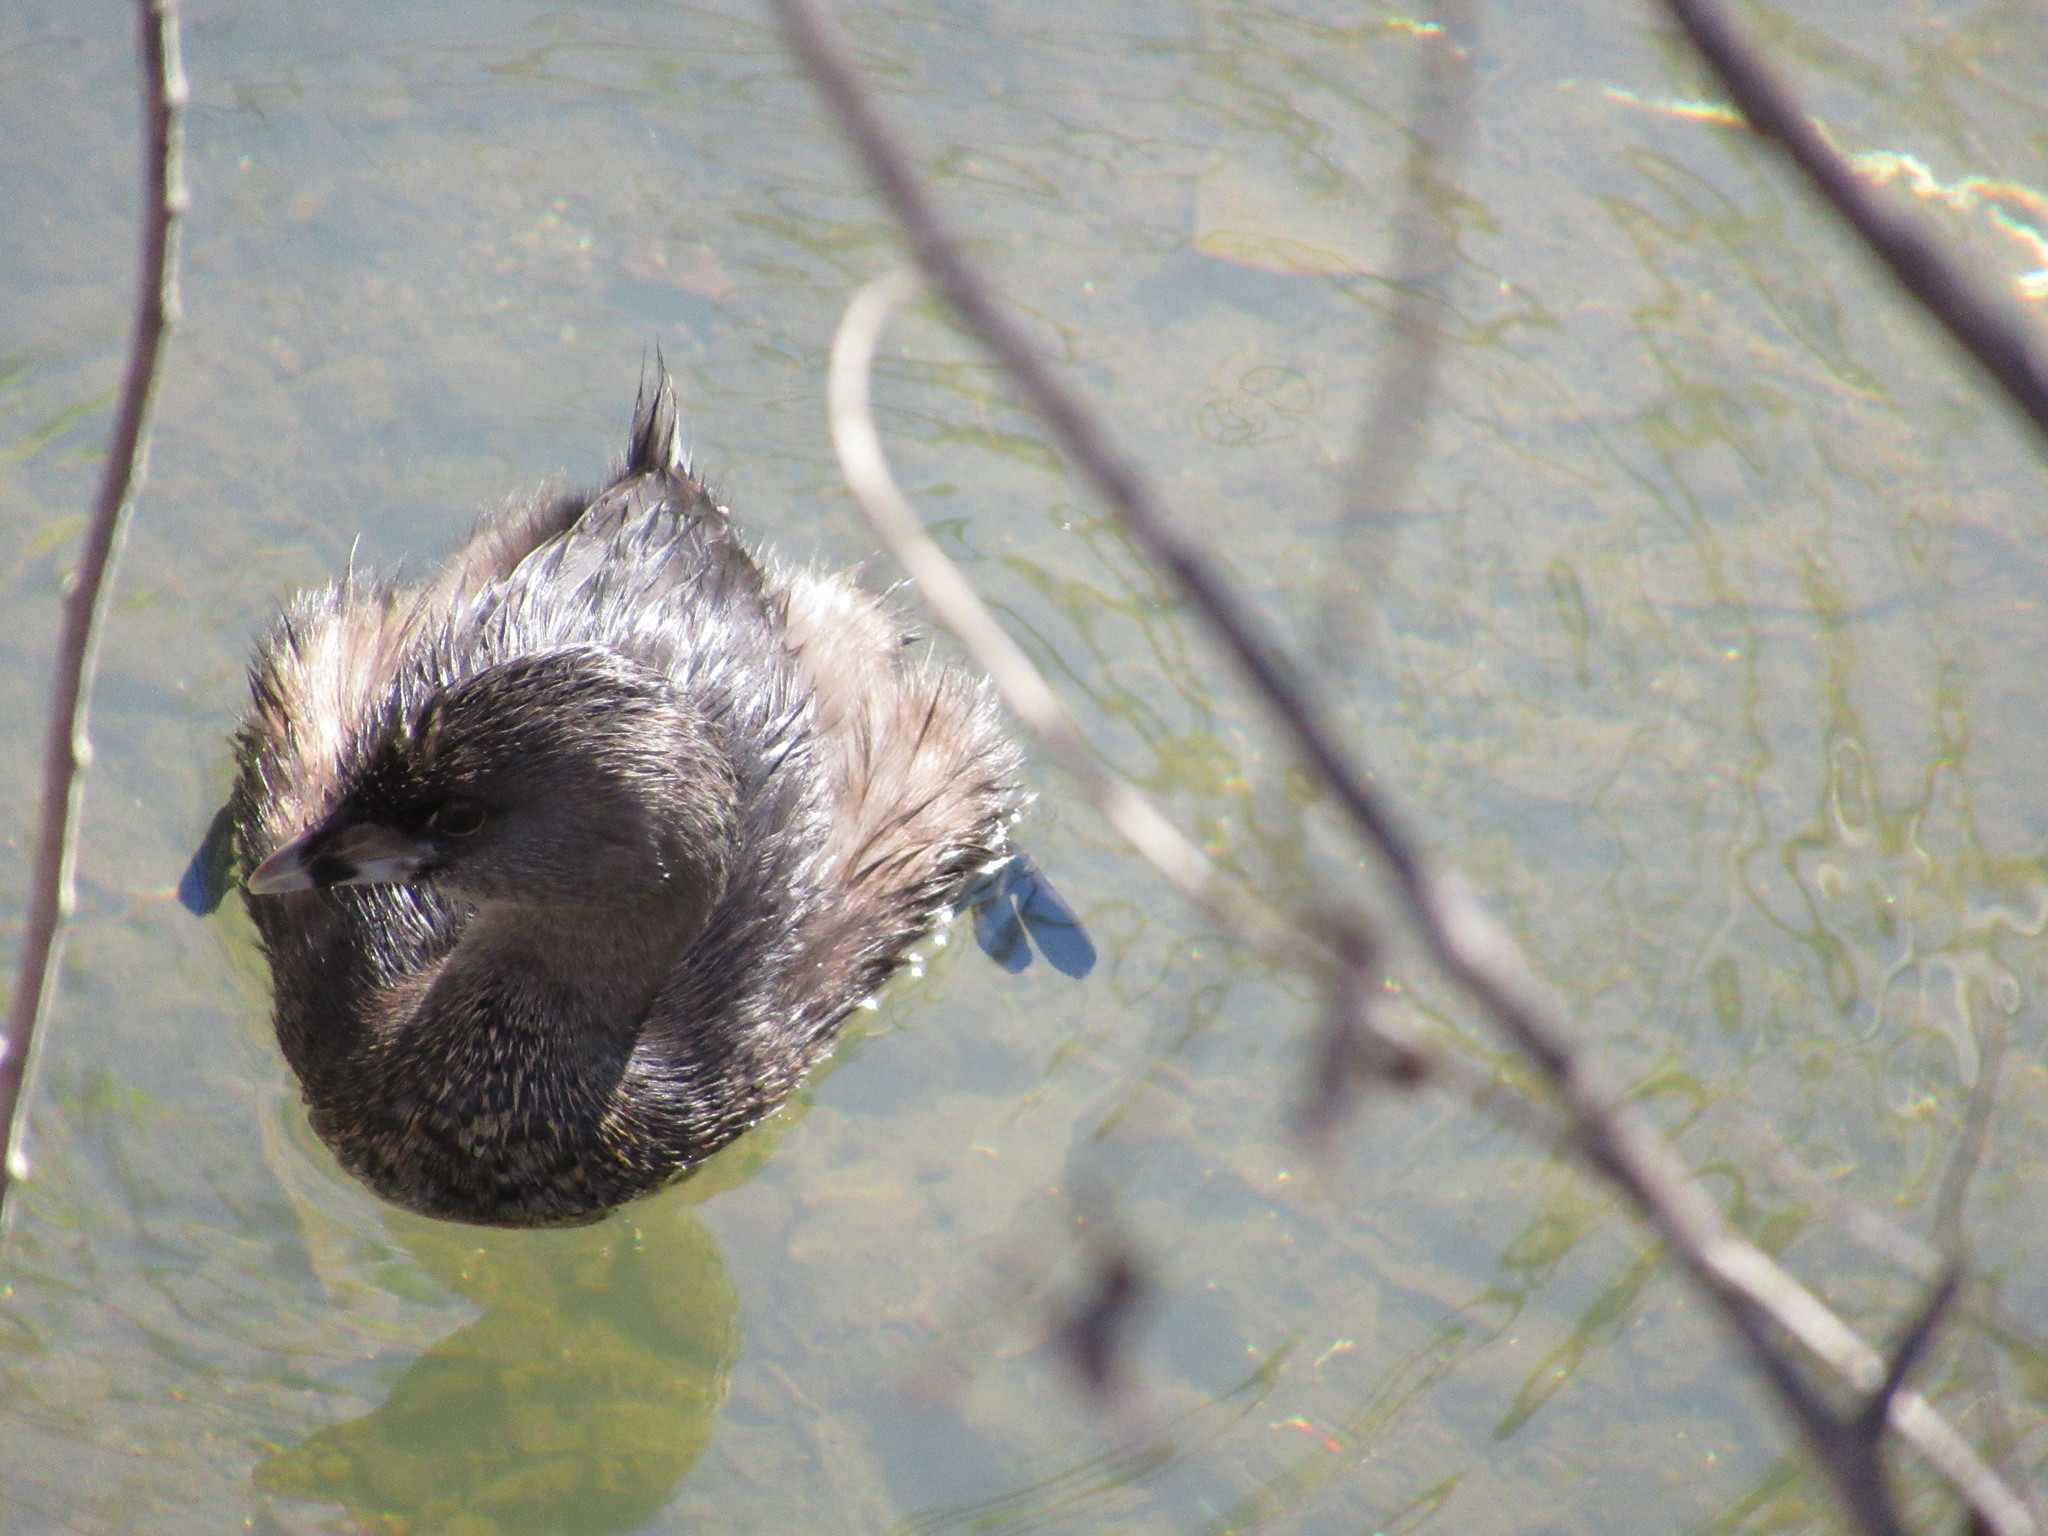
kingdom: Animalia
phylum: Chordata
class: Aves
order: Podicipediformes
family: Podicipedidae
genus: Podilymbus
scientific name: Podilymbus podiceps
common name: Pied-billed grebe
